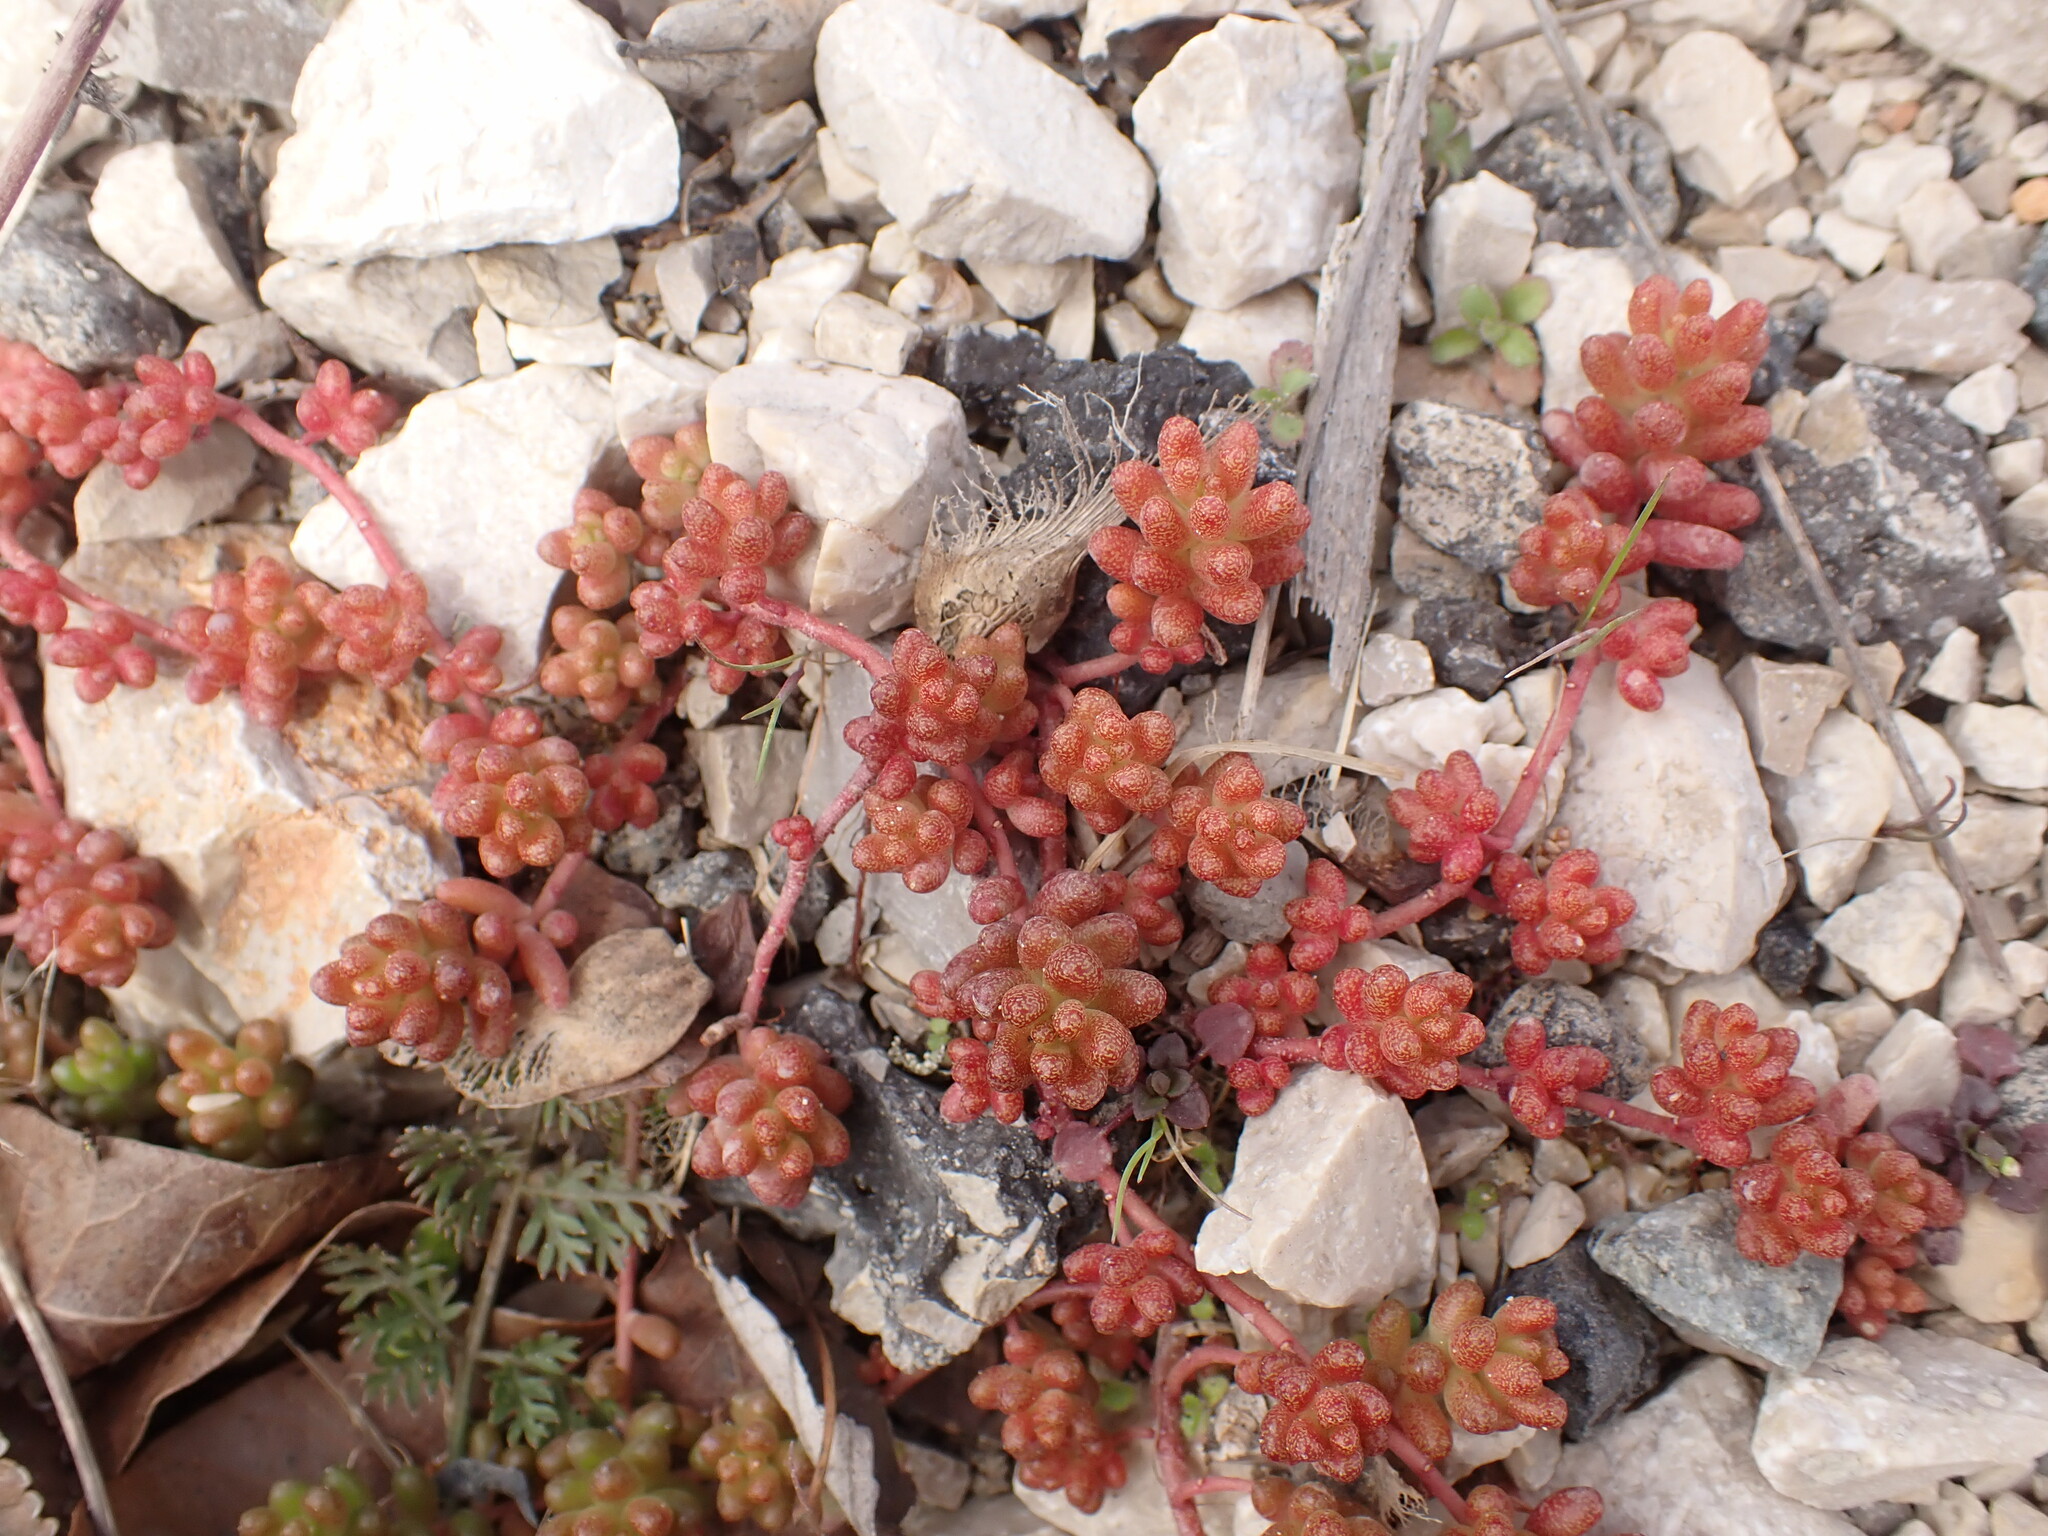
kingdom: Plantae
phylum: Tracheophyta
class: Magnoliopsida
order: Saxifragales
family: Crassulaceae
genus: Sedum
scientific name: Sedum album
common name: White stonecrop
